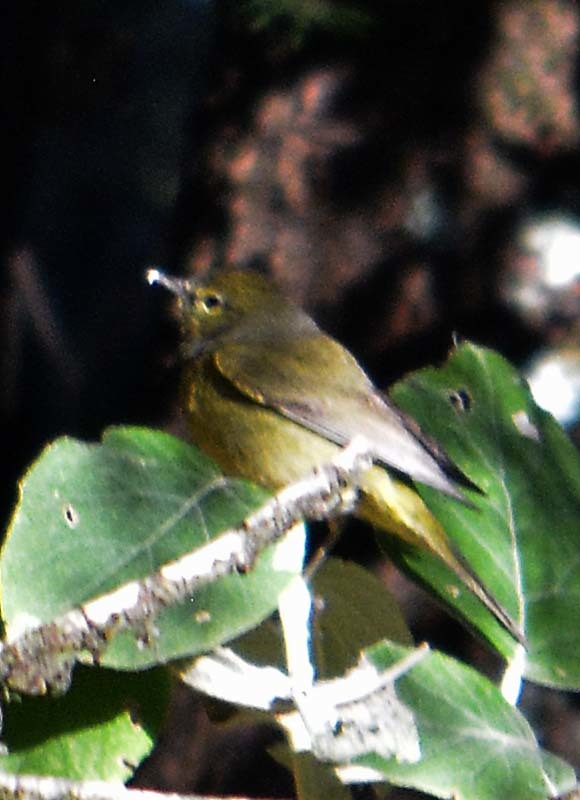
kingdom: Animalia
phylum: Chordata
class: Aves
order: Passeriformes
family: Parulidae
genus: Leiothlypis
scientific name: Leiothlypis celata
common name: Orange-crowned warbler
